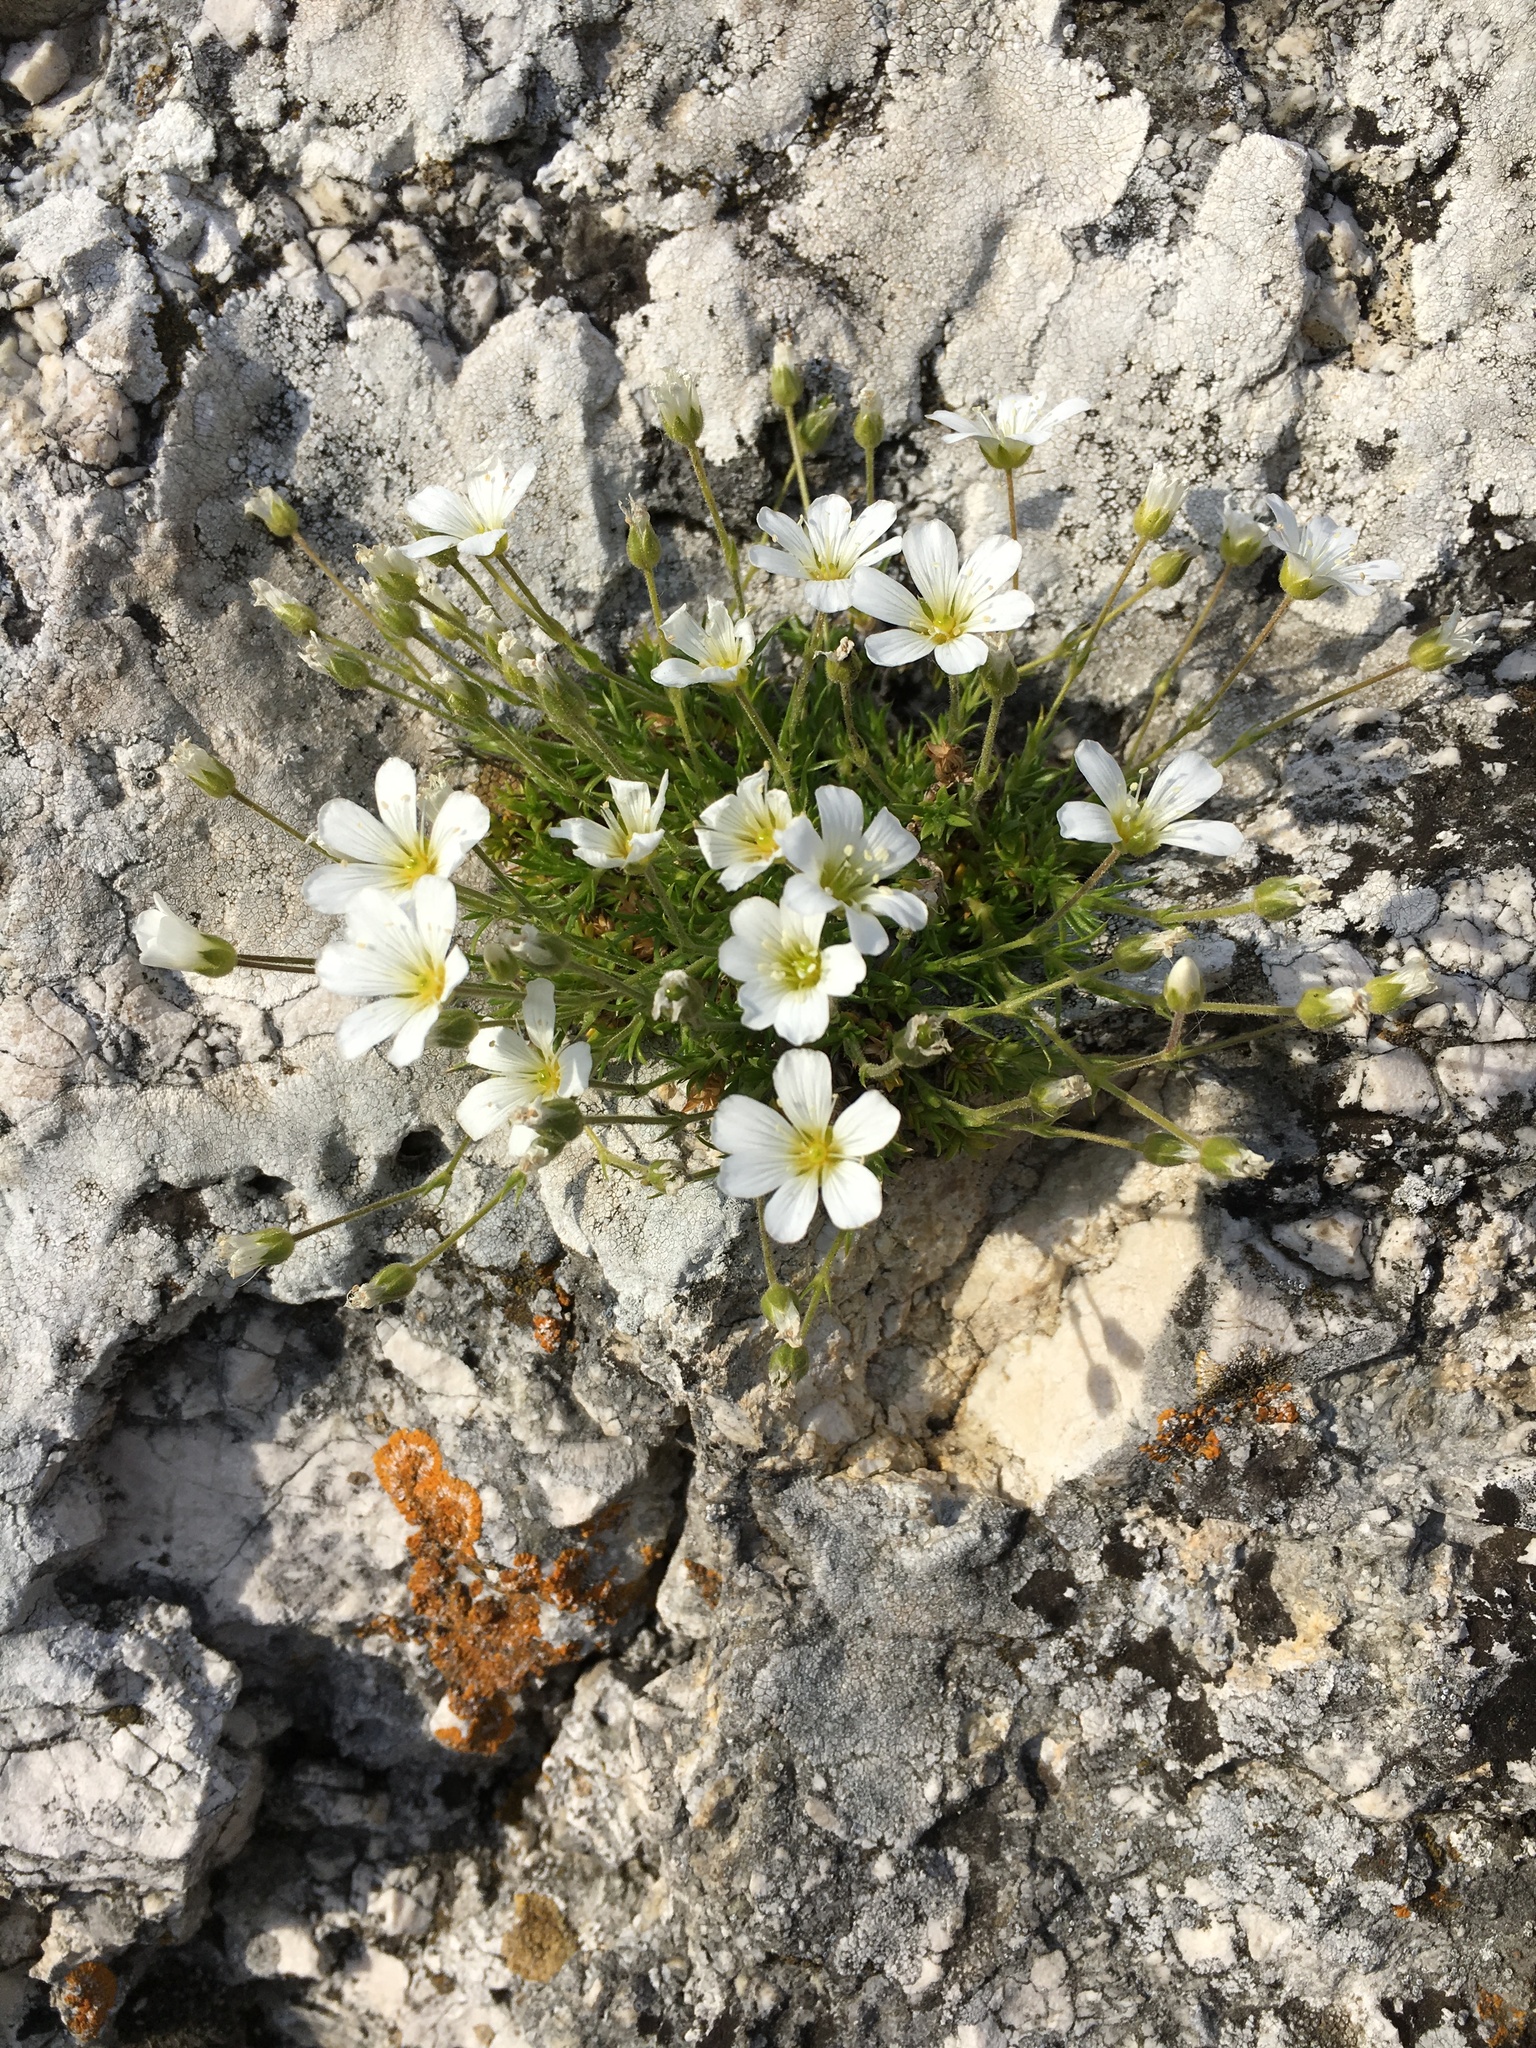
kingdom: Plantae
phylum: Tracheophyta
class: Magnoliopsida
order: Caryophyllales
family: Caryophyllaceae
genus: Arenaria
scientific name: Arenaria grandiflora
